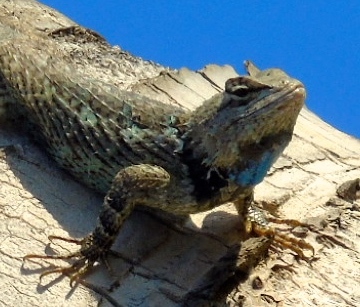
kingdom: Animalia
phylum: Chordata
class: Squamata
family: Phrynosomatidae
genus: Sceloporus
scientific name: Sceloporus clarkii
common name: Clark's spiny lizard
